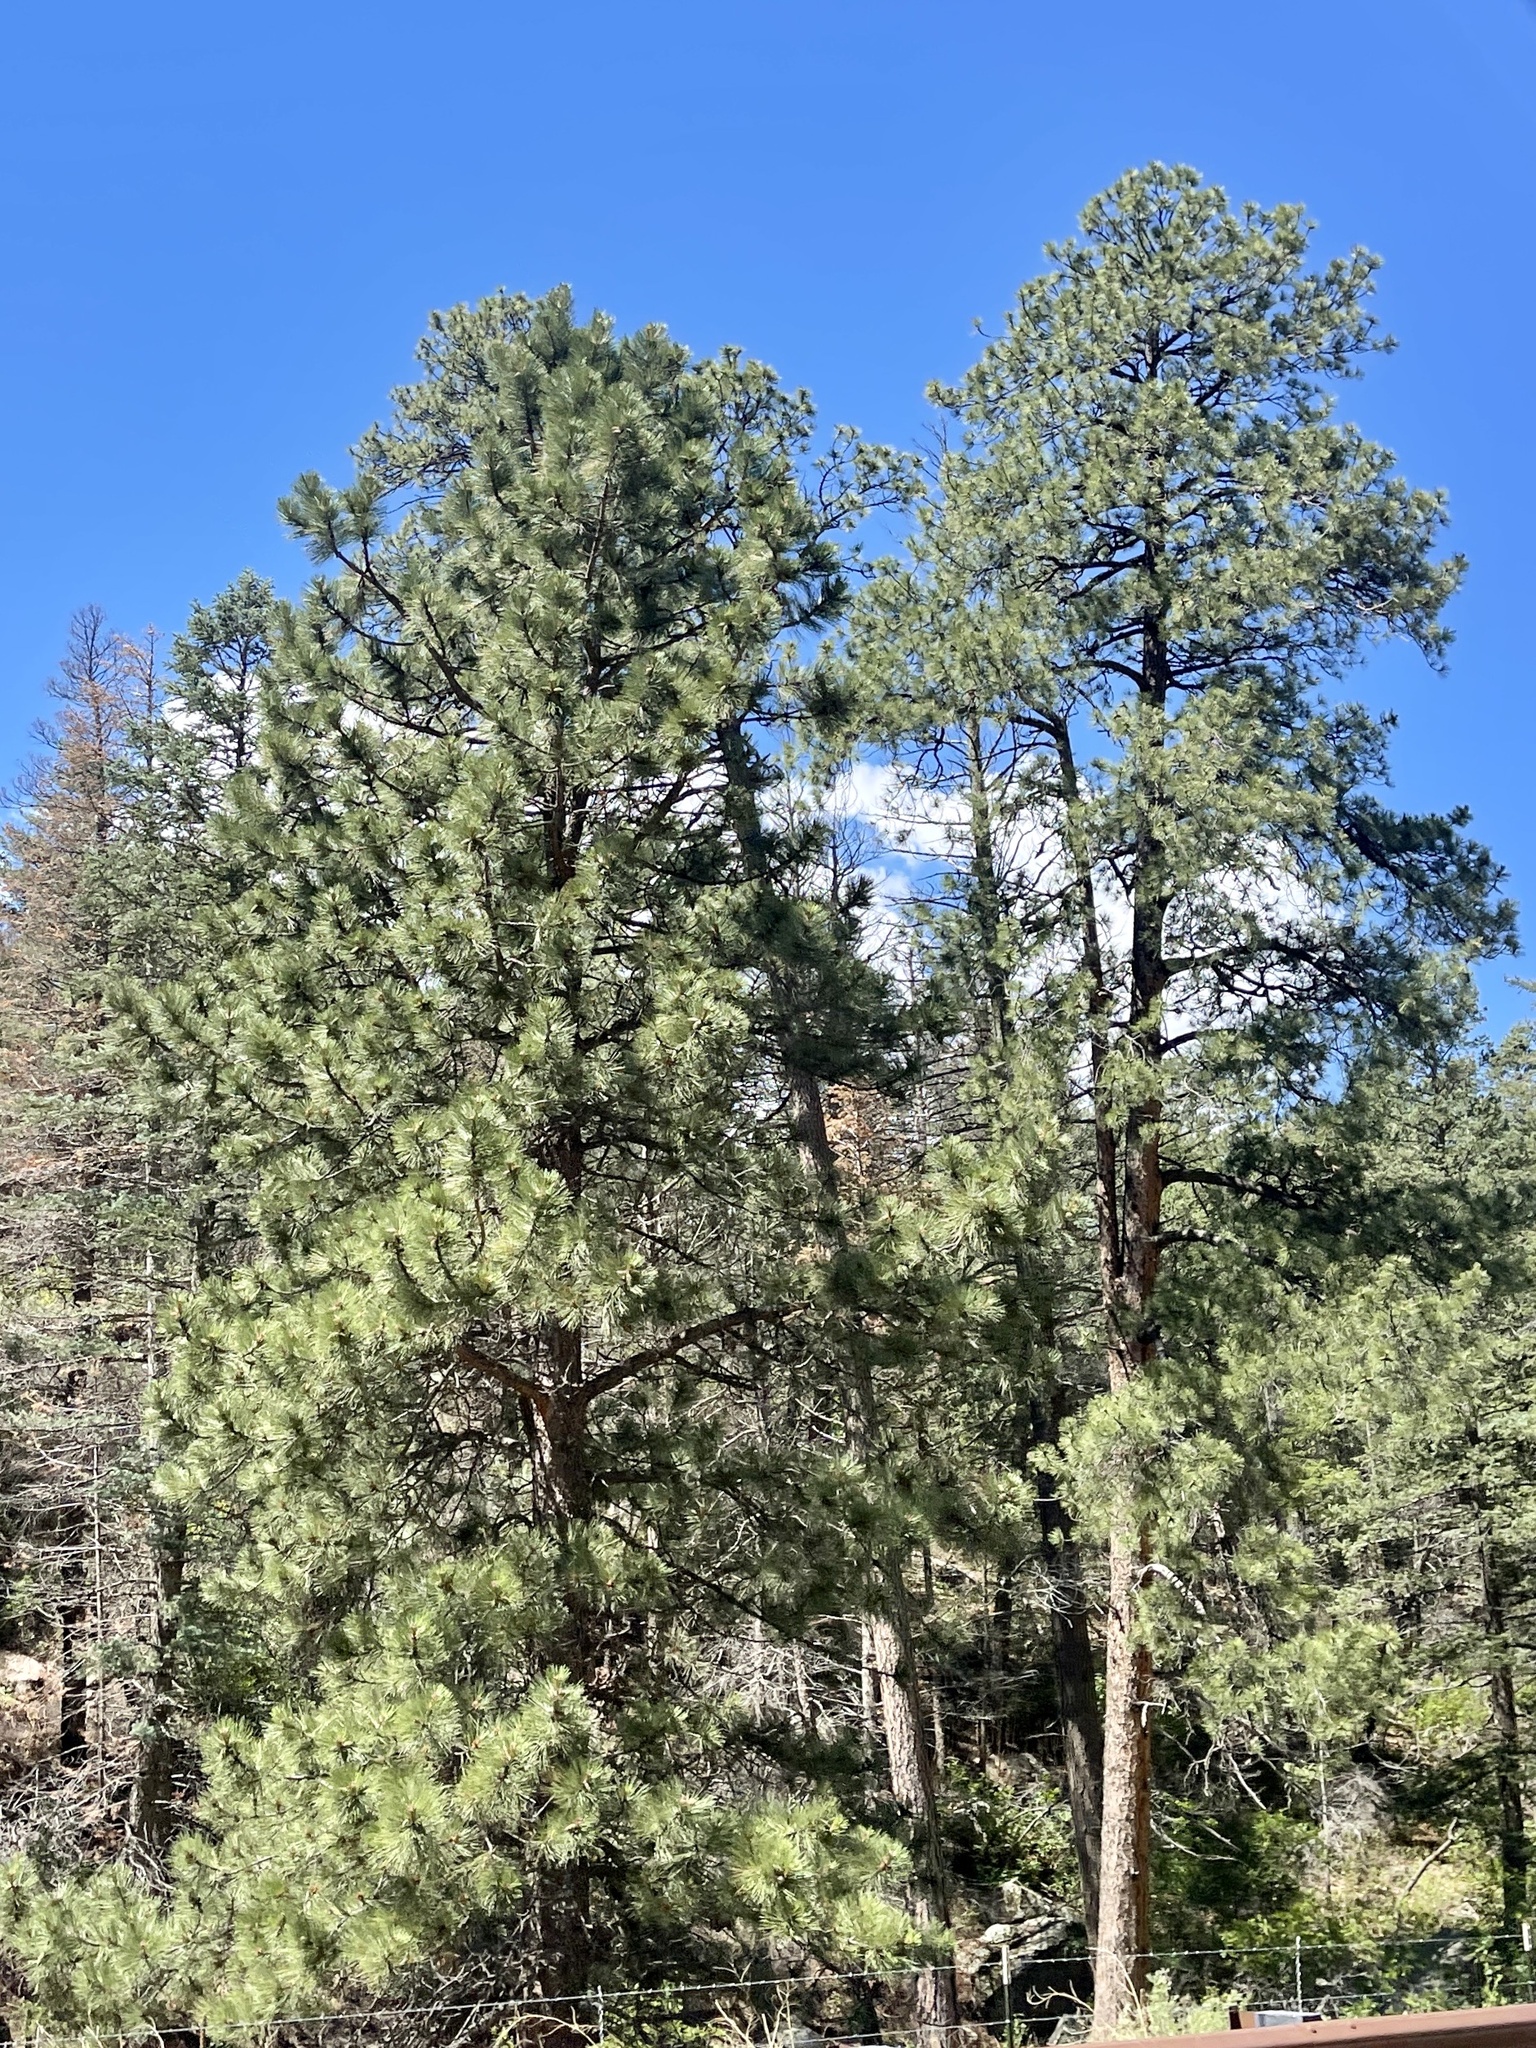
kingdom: Plantae
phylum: Tracheophyta
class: Pinopsida
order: Pinales
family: Pinaceae
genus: Pinus
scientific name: Pinus ponderosa
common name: Western yellow-pine
